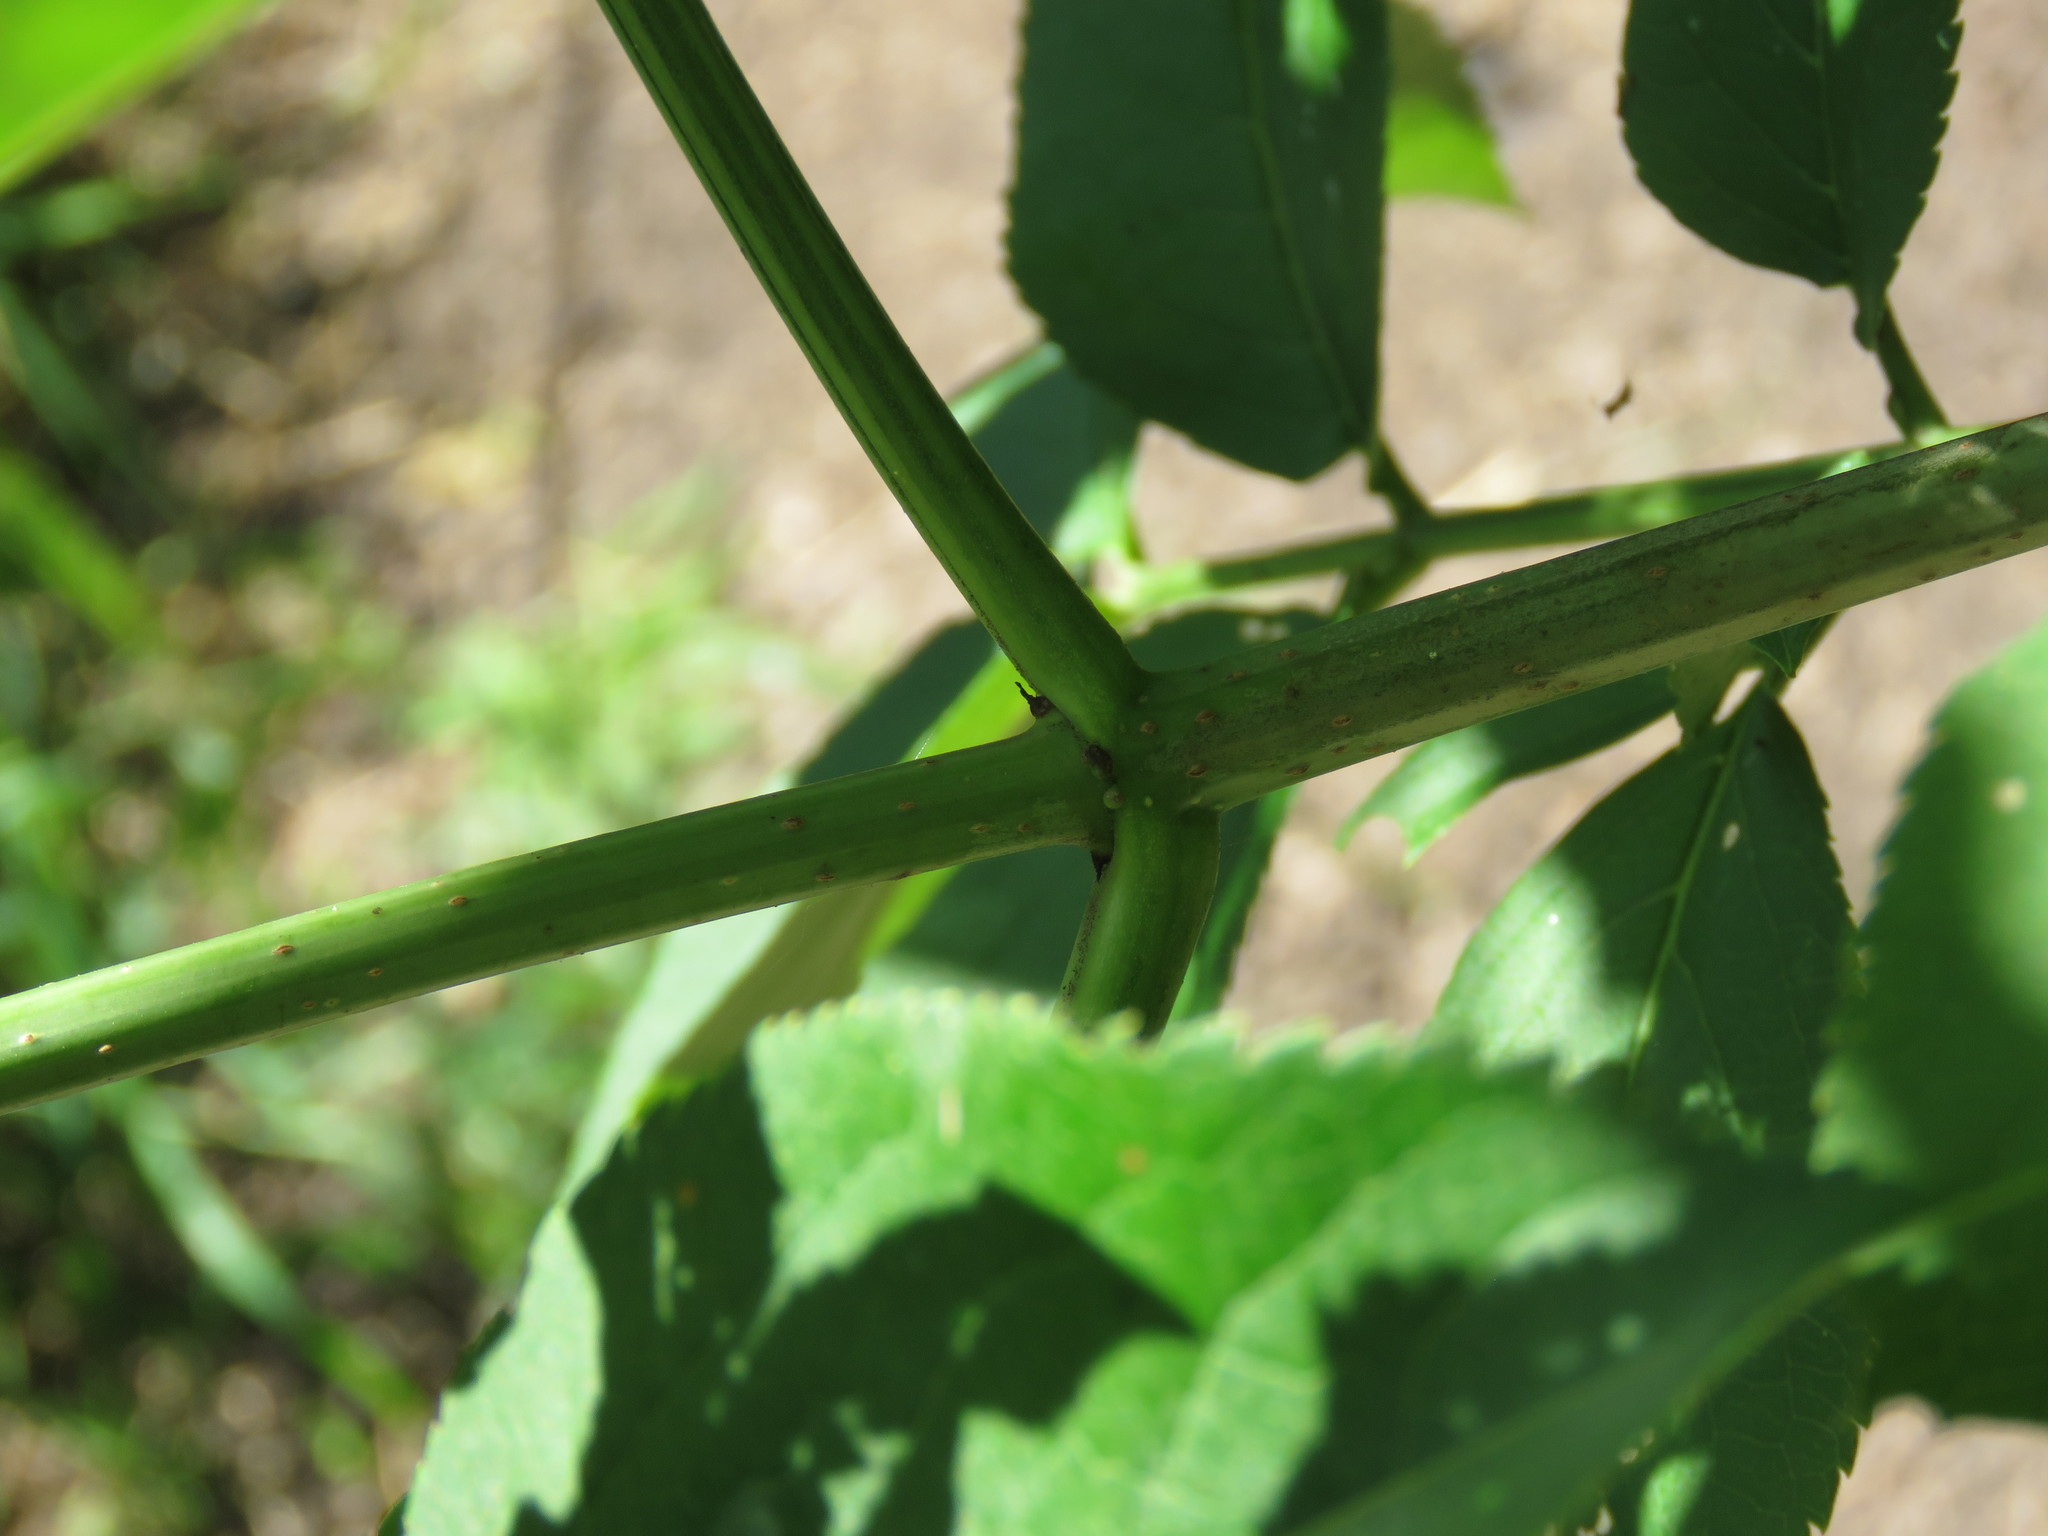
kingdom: Plantae
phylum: Tracheophyta
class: Magnoliopsida
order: Dipsacales
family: Viburnaceae
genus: Sambucus
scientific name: Sambucus canadensis
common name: American elder
